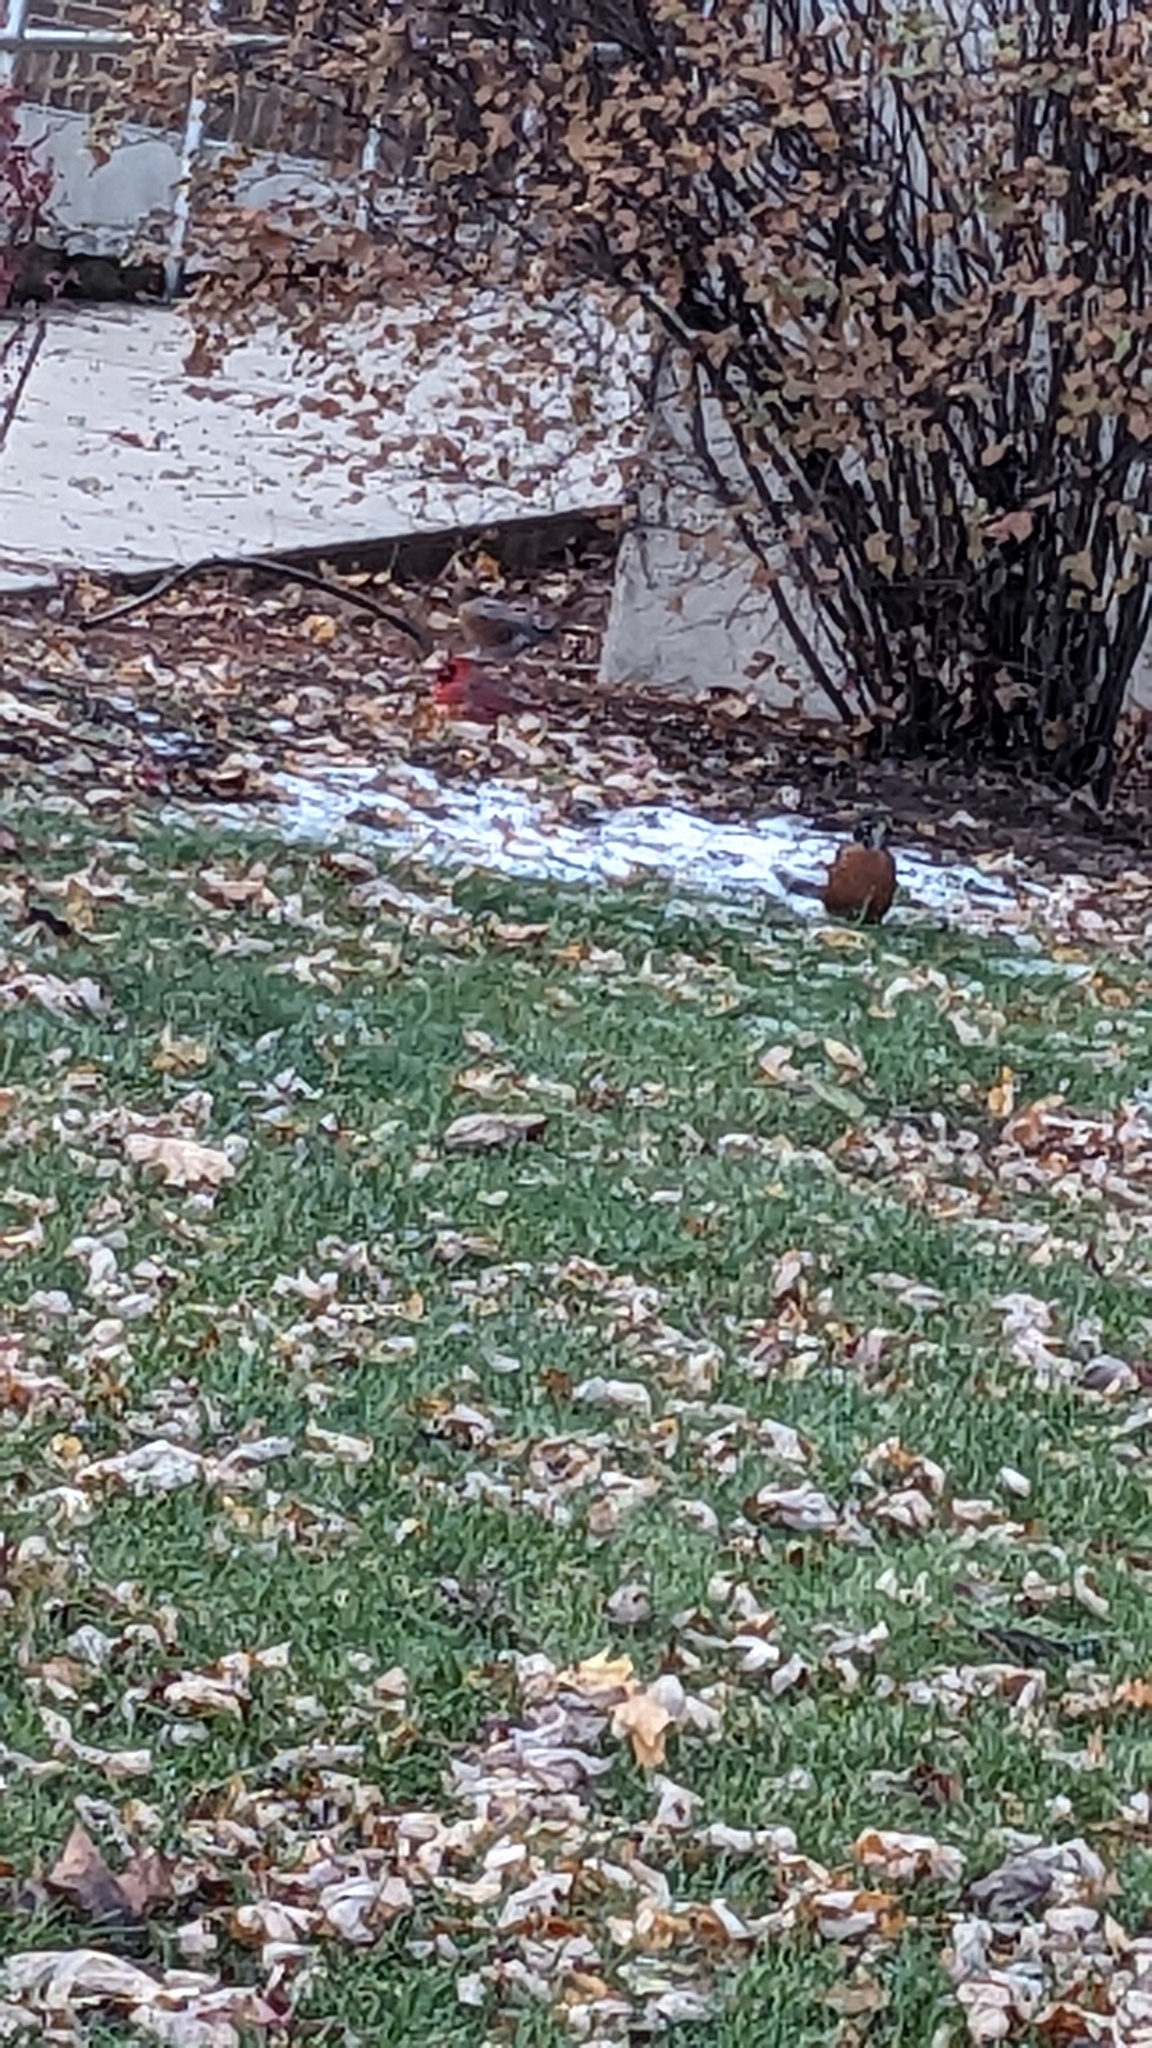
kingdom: Animalia
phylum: Chordata
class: Aves
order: Passeriformes
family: Turdidae
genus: Turdus
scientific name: Turdus migratorius
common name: American robin
